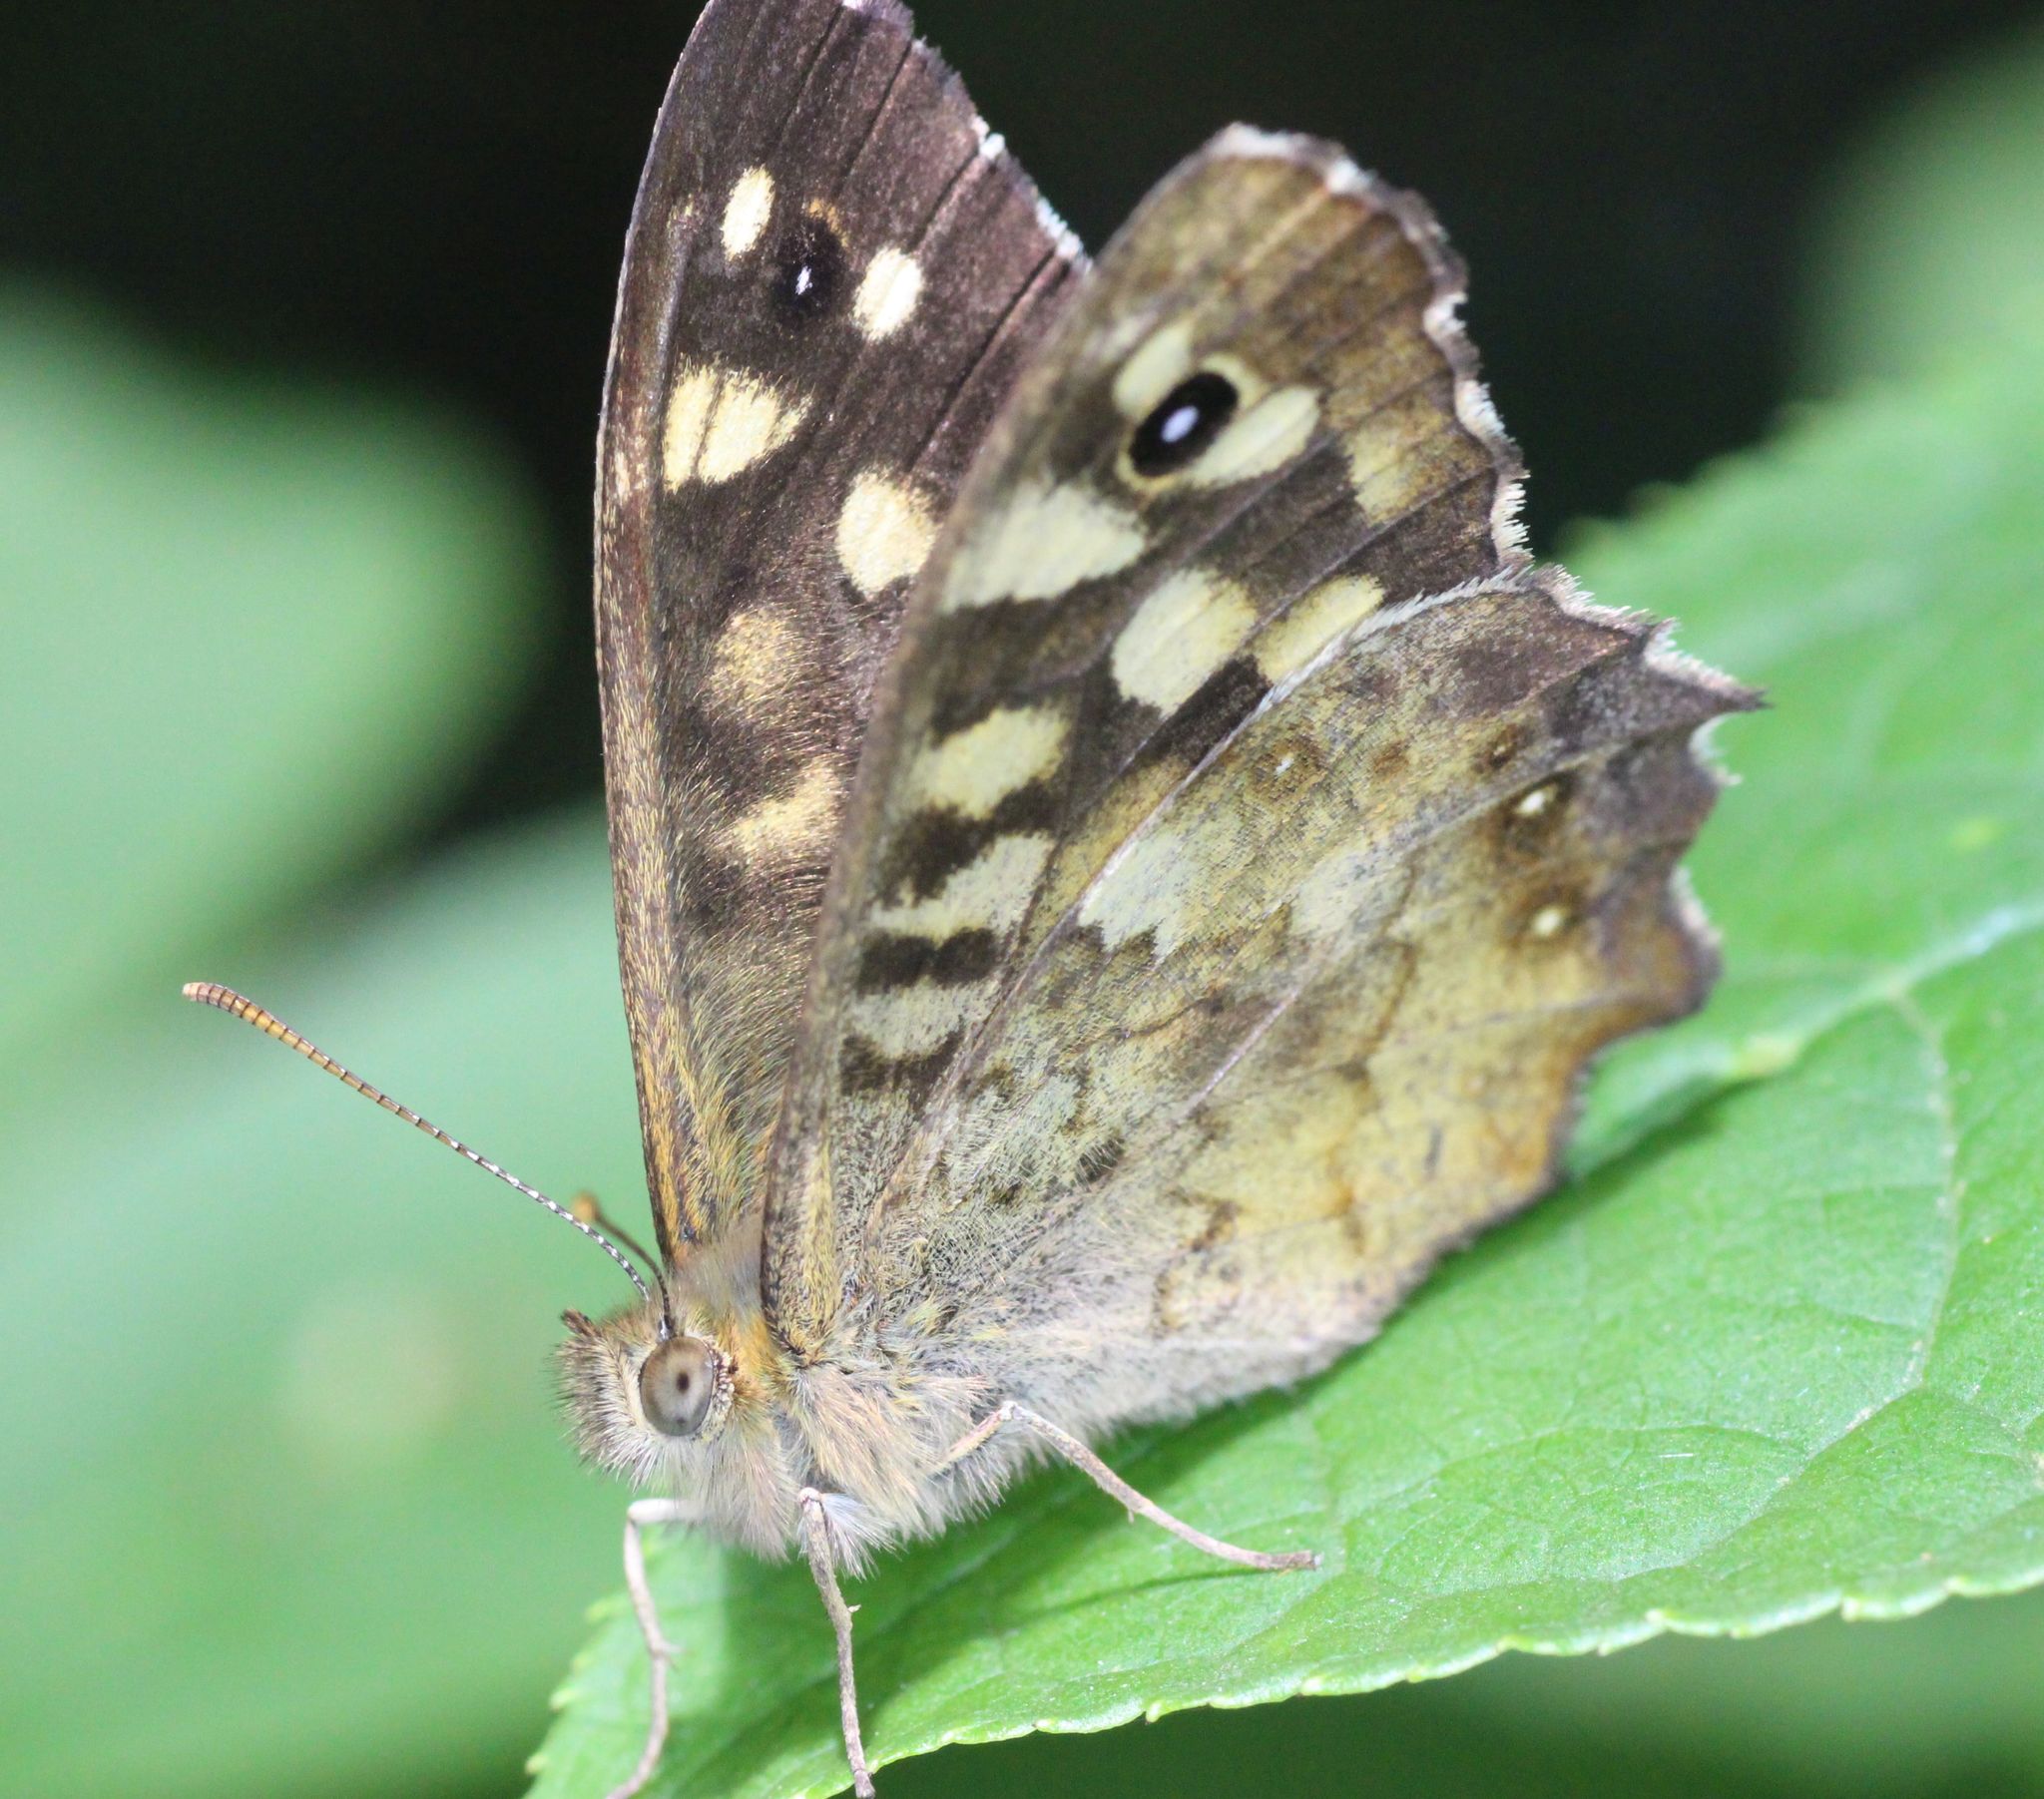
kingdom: Animalia
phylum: Arthropoda
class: Insecta
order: Lepidoptera
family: Nymphalidae
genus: Pararge
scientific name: Pararge aegeria
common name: Speckled wood
